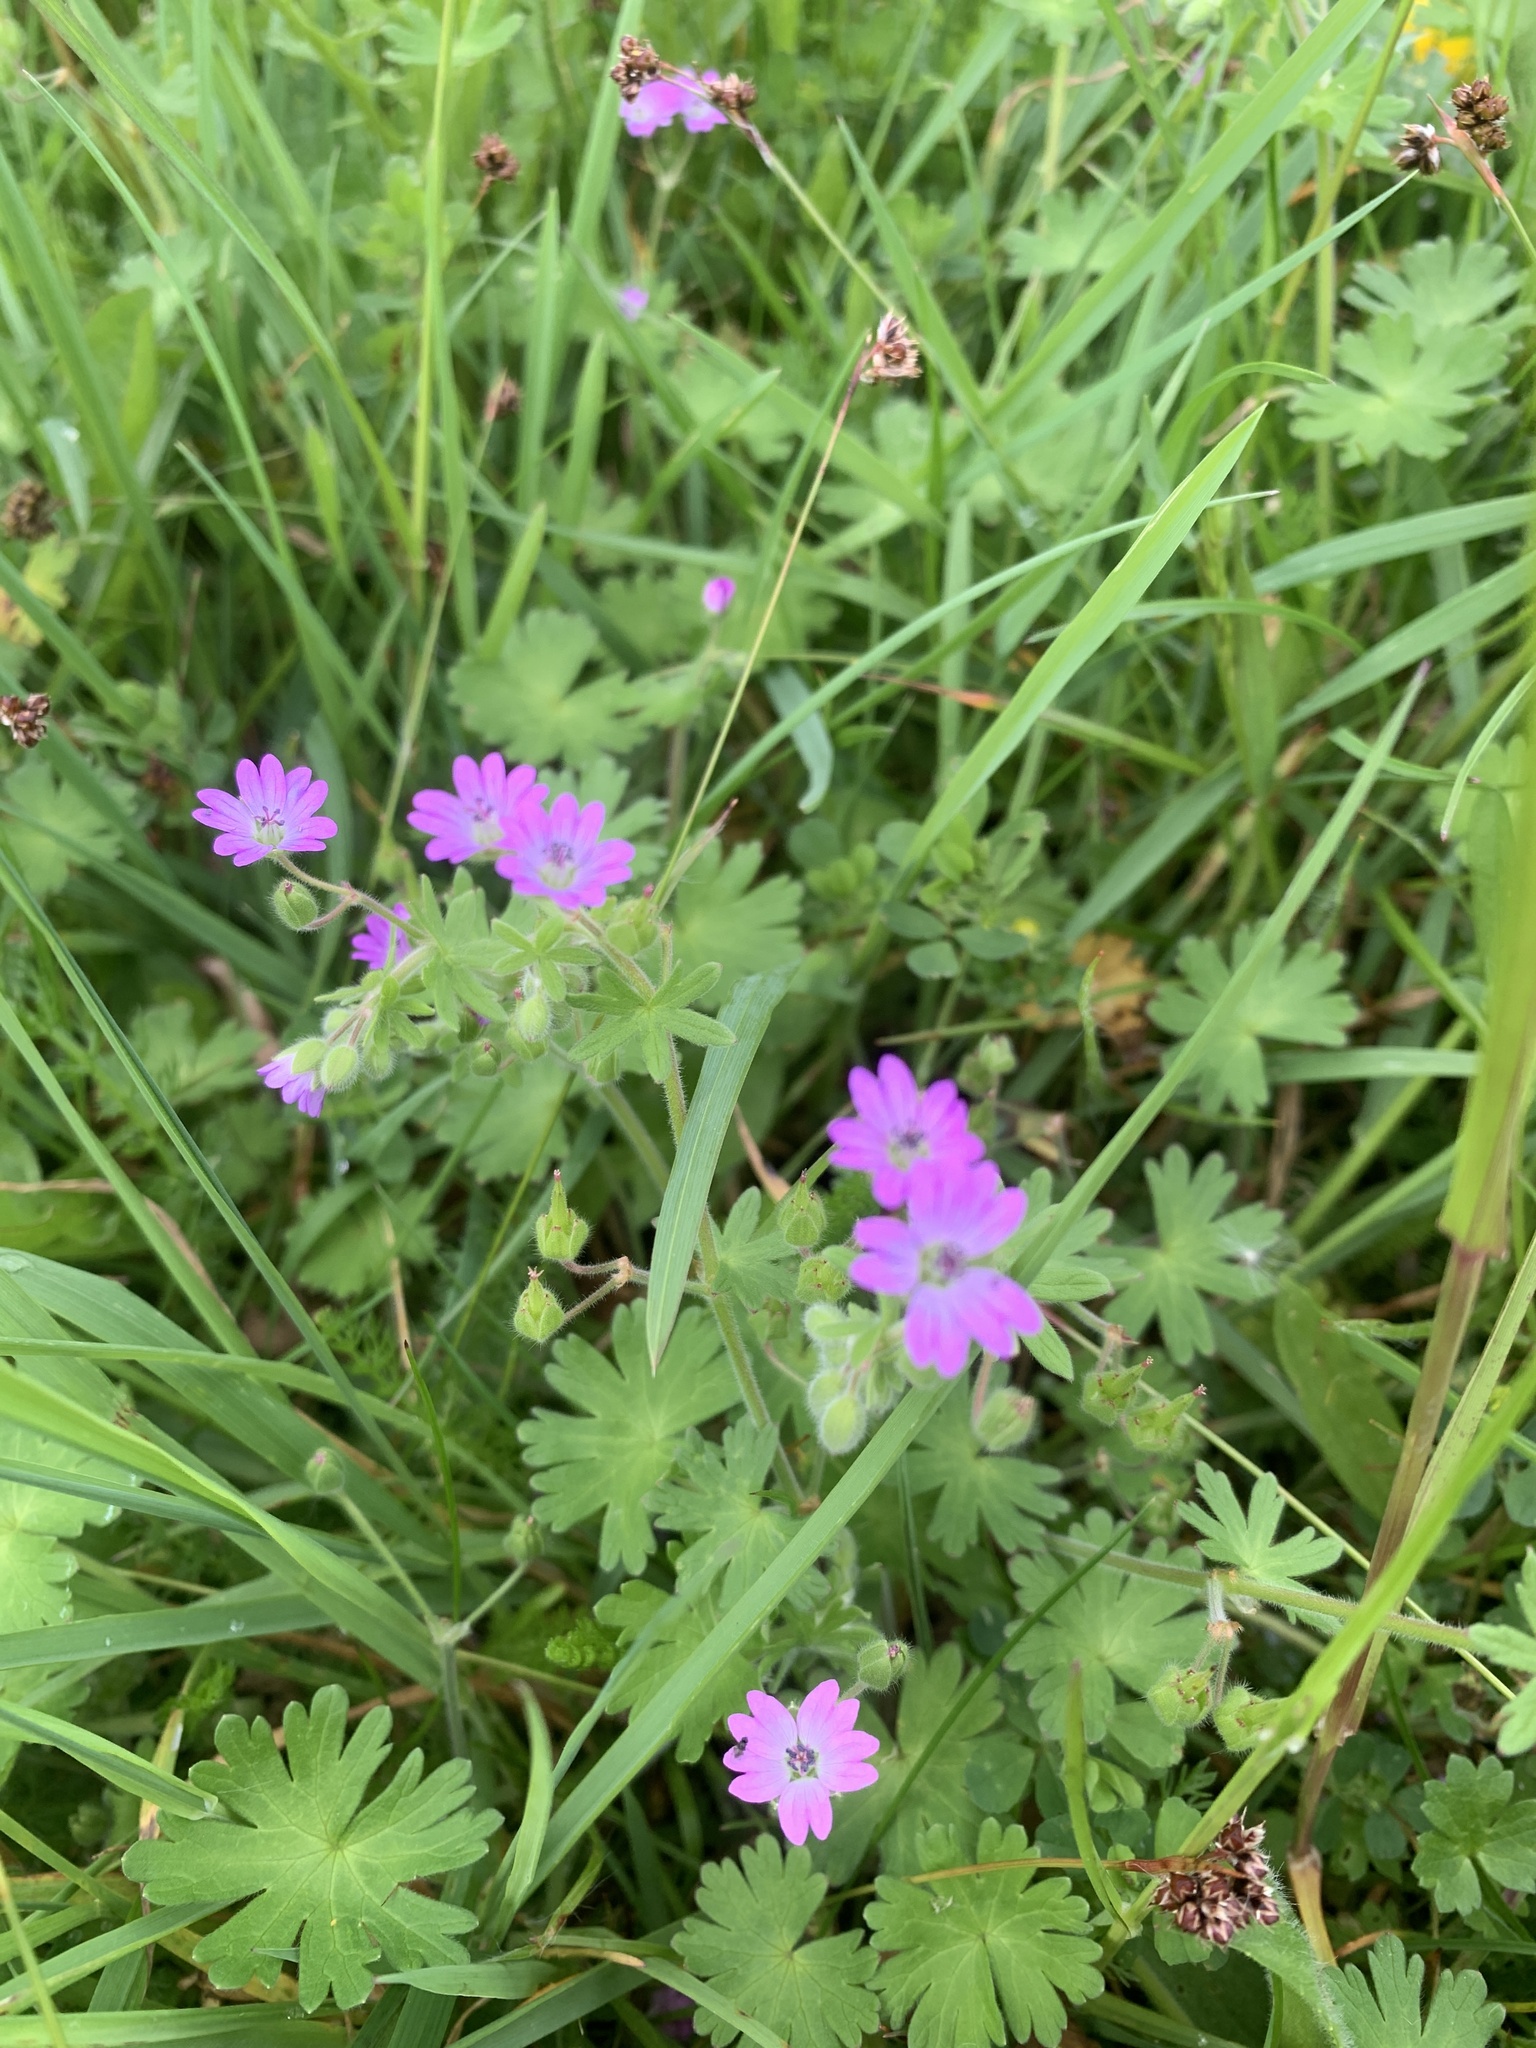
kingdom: Plantae
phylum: Tracheophyta
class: Magnoliopsida
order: Geraniales
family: Geraniaceae
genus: Geranium
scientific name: Geranium molle
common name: Dove's-foot crane's-bill
